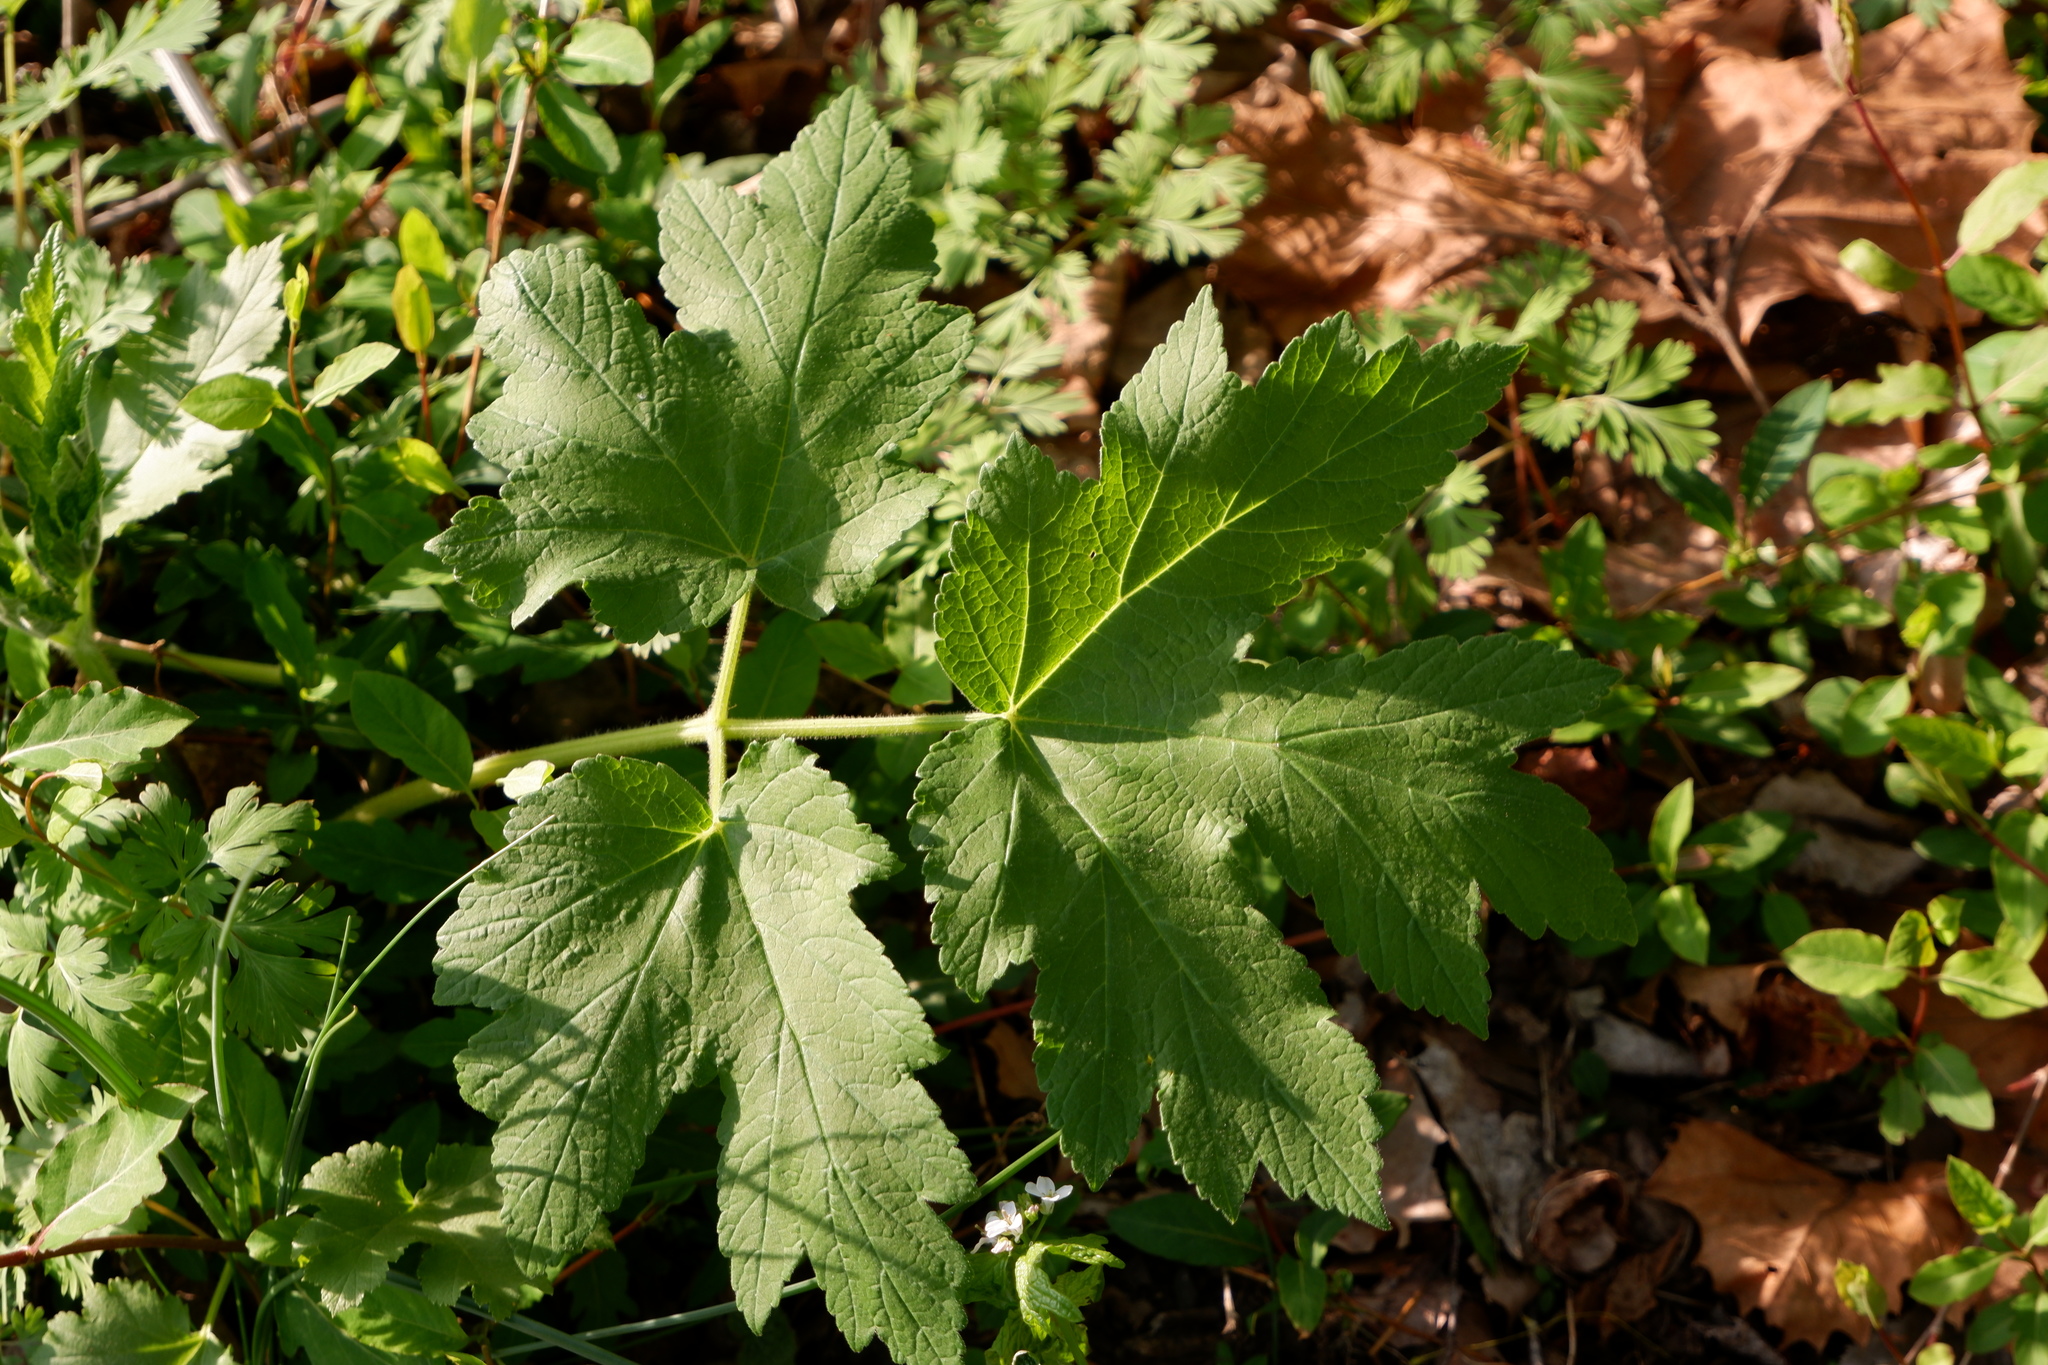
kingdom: Plantae
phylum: Tracheophyta
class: Magnoliopsida
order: Apiales
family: Apiaceae
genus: Heracleum
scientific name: Heracleum maximum
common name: American cow parsnip
